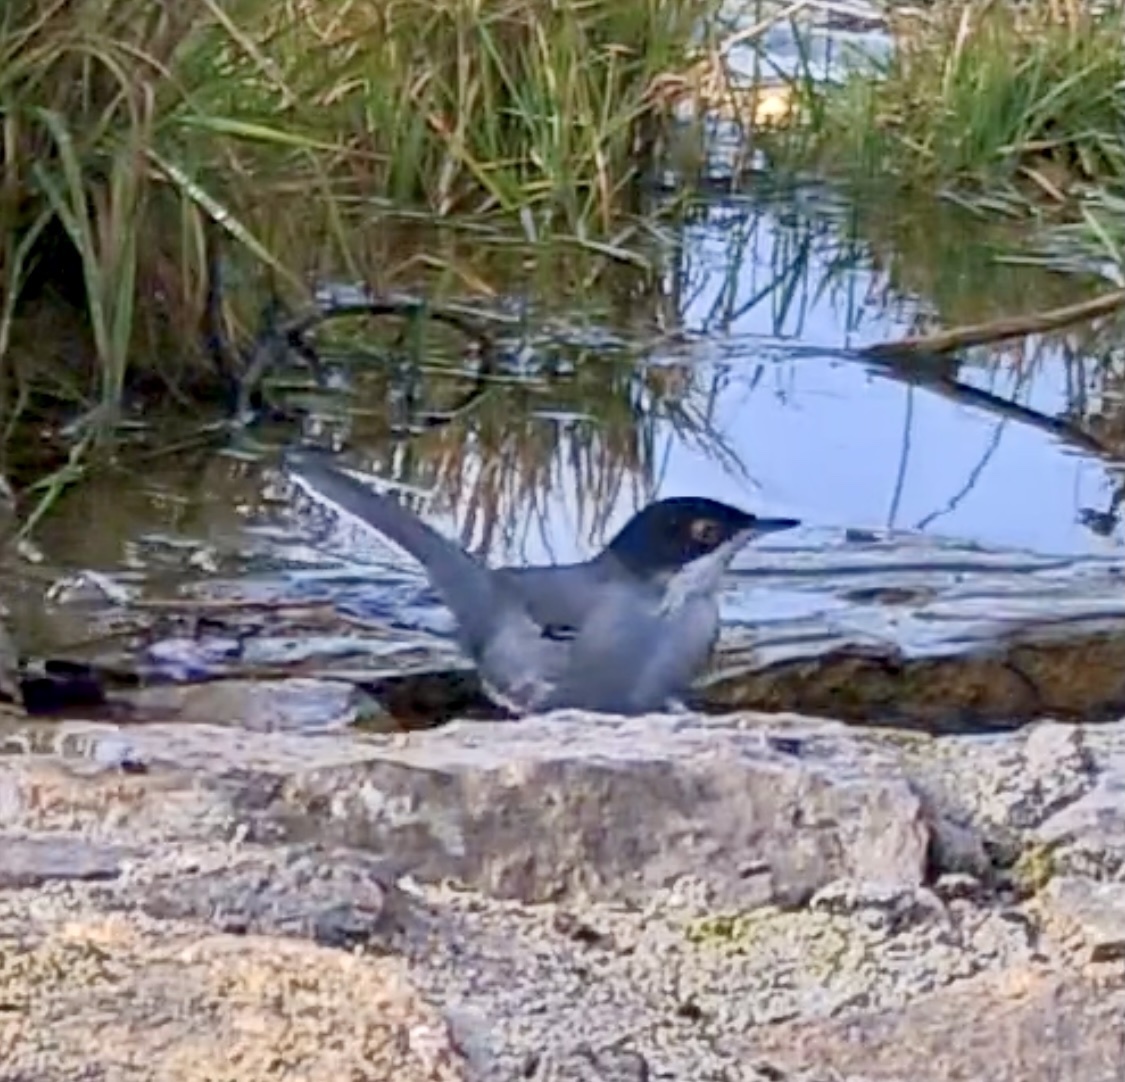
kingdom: Animalia
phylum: Chordata
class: Aves
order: Passeriformes
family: Sylviidae
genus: Curruca
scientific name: Curruca melanocephala
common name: Sardinian warbler
